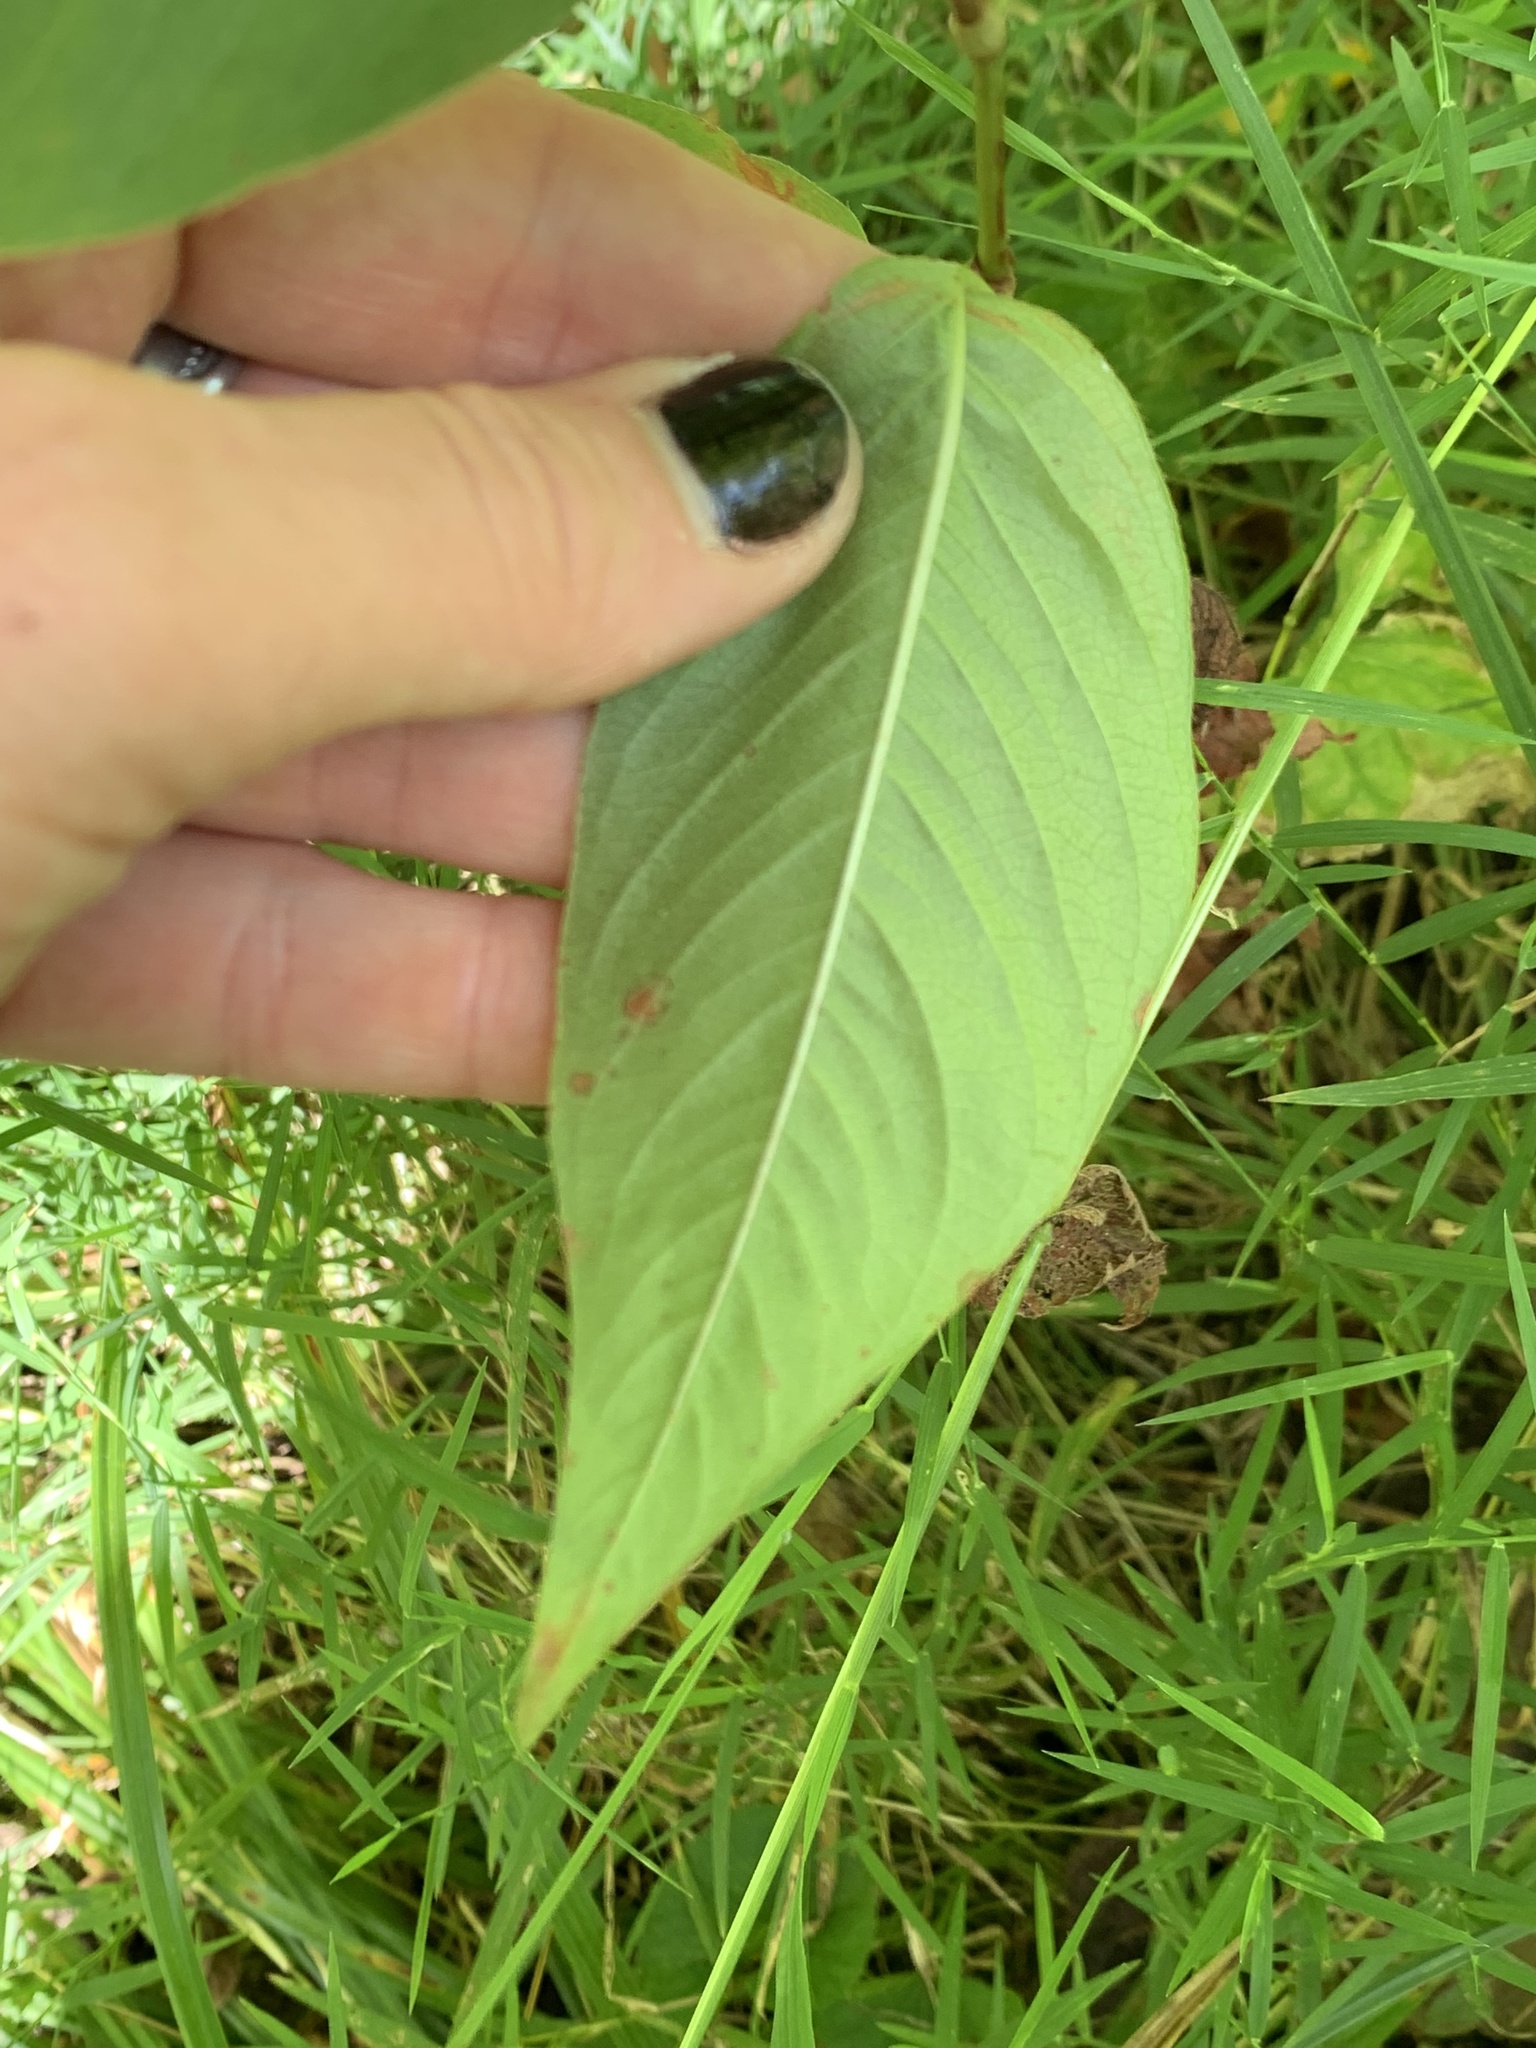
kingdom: Plantae
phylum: Tracheophyta
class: Magnoliopsida
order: Caryophyllales
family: Polygonaceae
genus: Persicaria
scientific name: Persicaria virginiana
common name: Jumpseed
